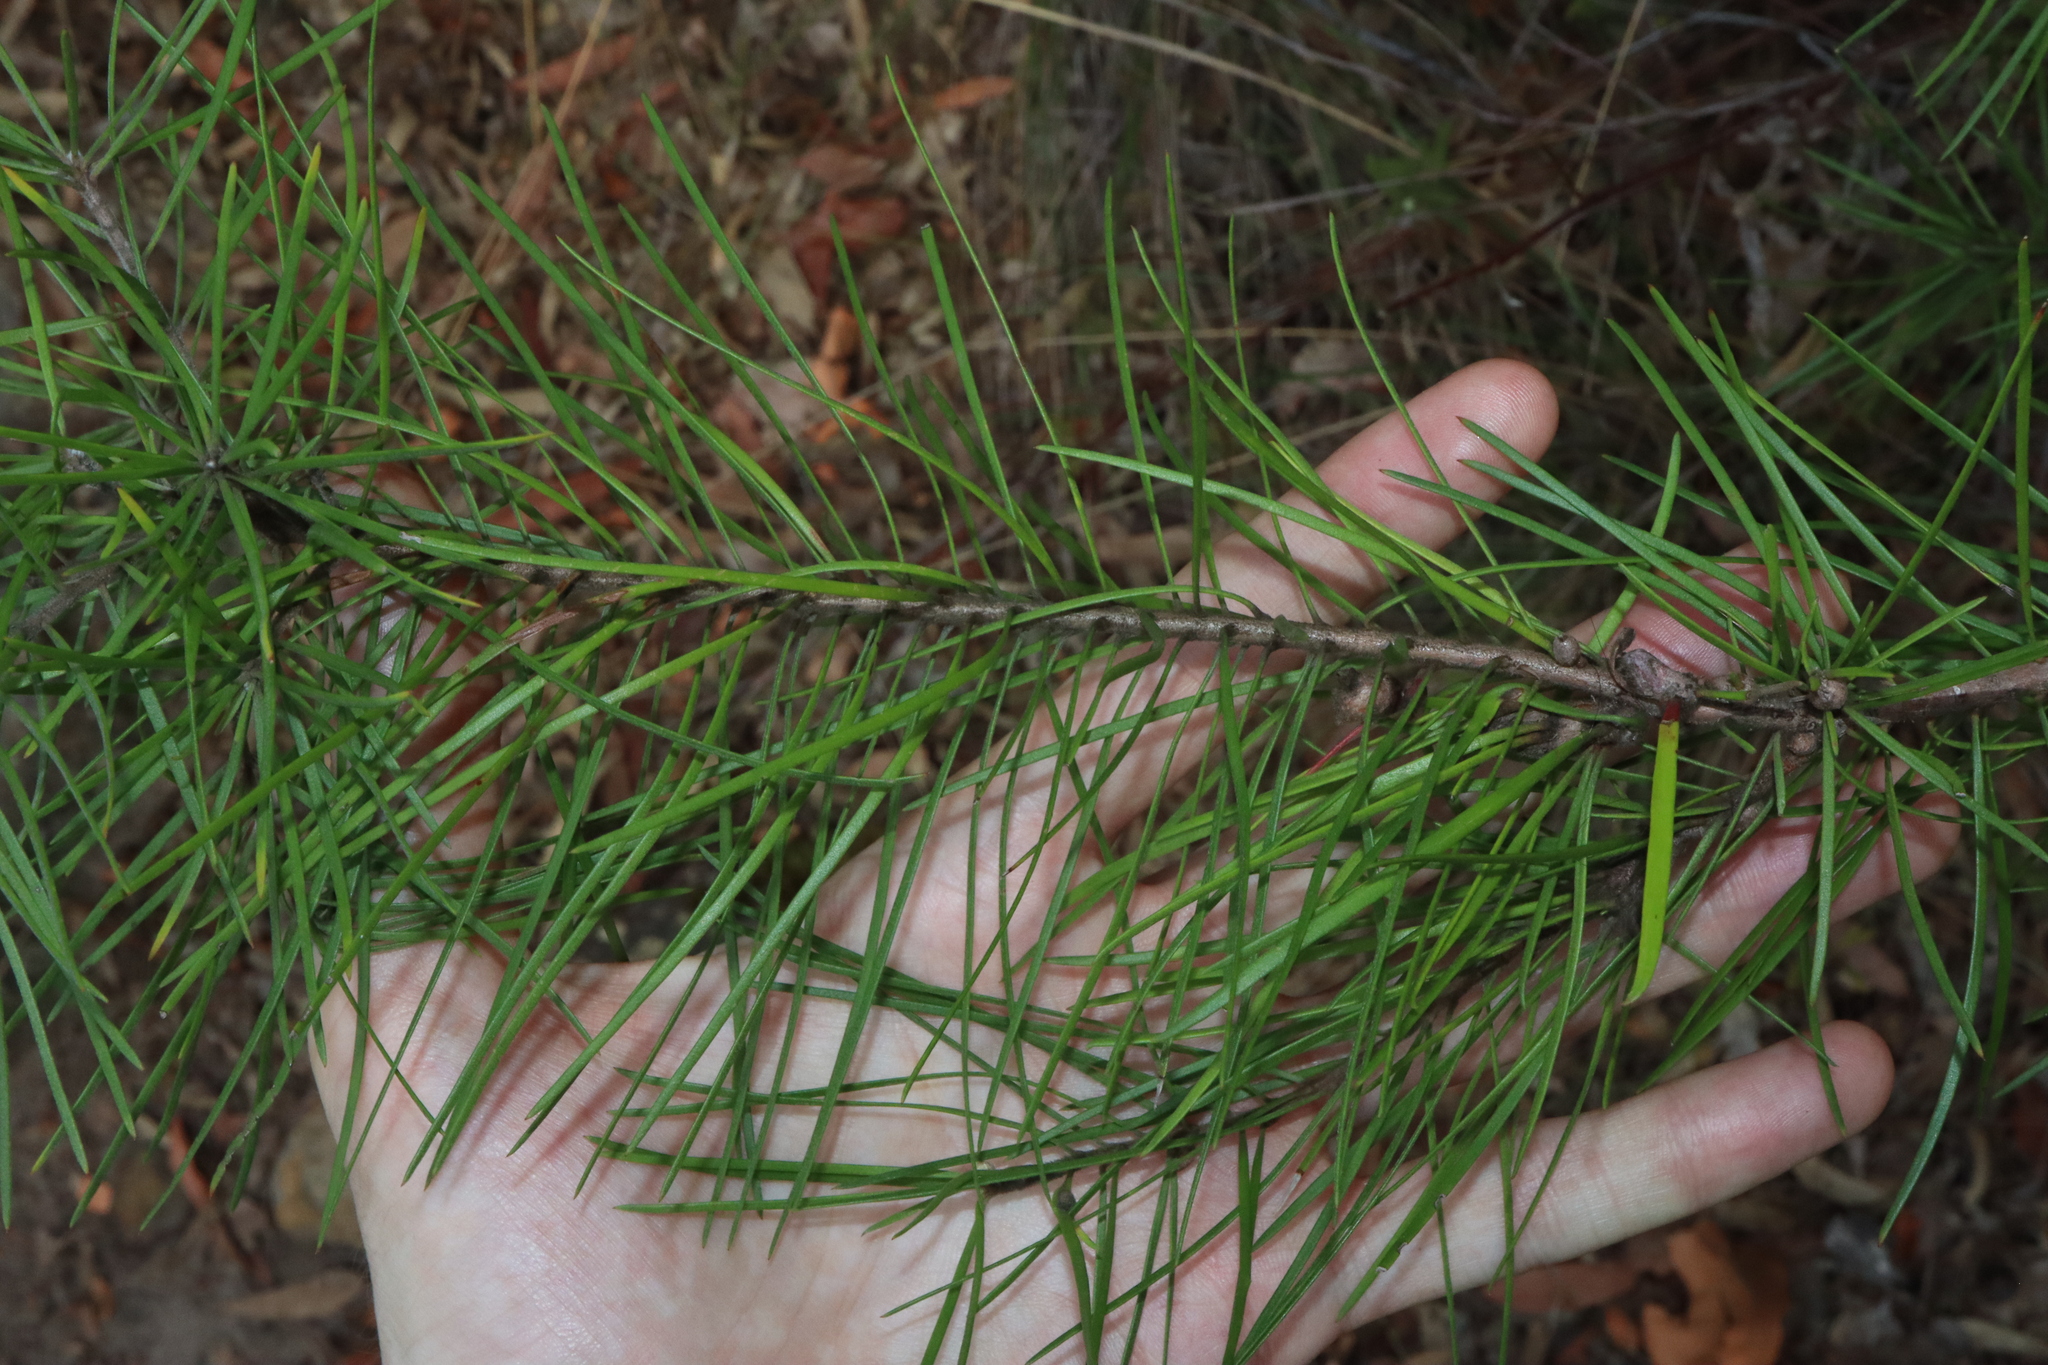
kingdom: Plantae
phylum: Tracheophyta
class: Magnoliopsida
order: Proteales
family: Proteaceae
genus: Persoonia
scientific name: Persoonia linearis
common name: Narrow-leaf geebung
